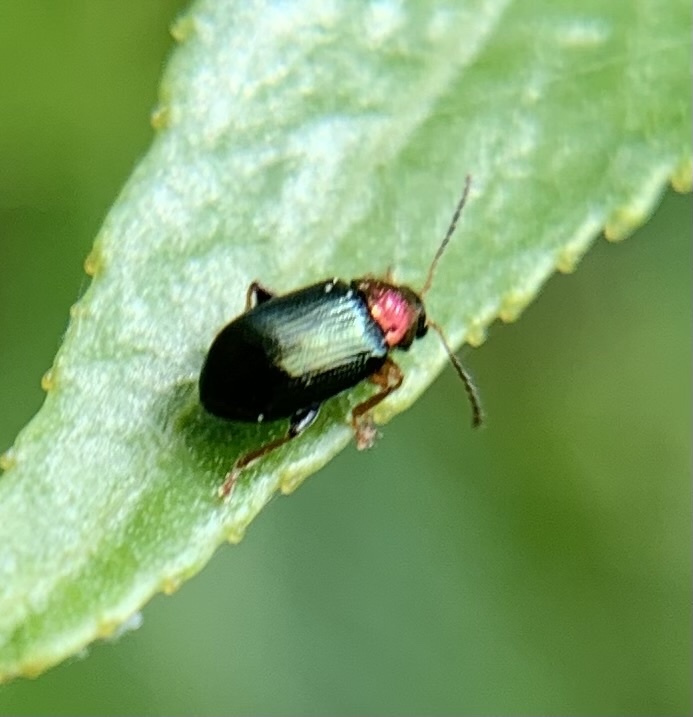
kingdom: Animalia
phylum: Arthropoda
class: Insecta
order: Coleoptera
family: Chrysomelidae
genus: Crepidodera
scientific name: Crepidodera aurata
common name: Willow flea beetle
